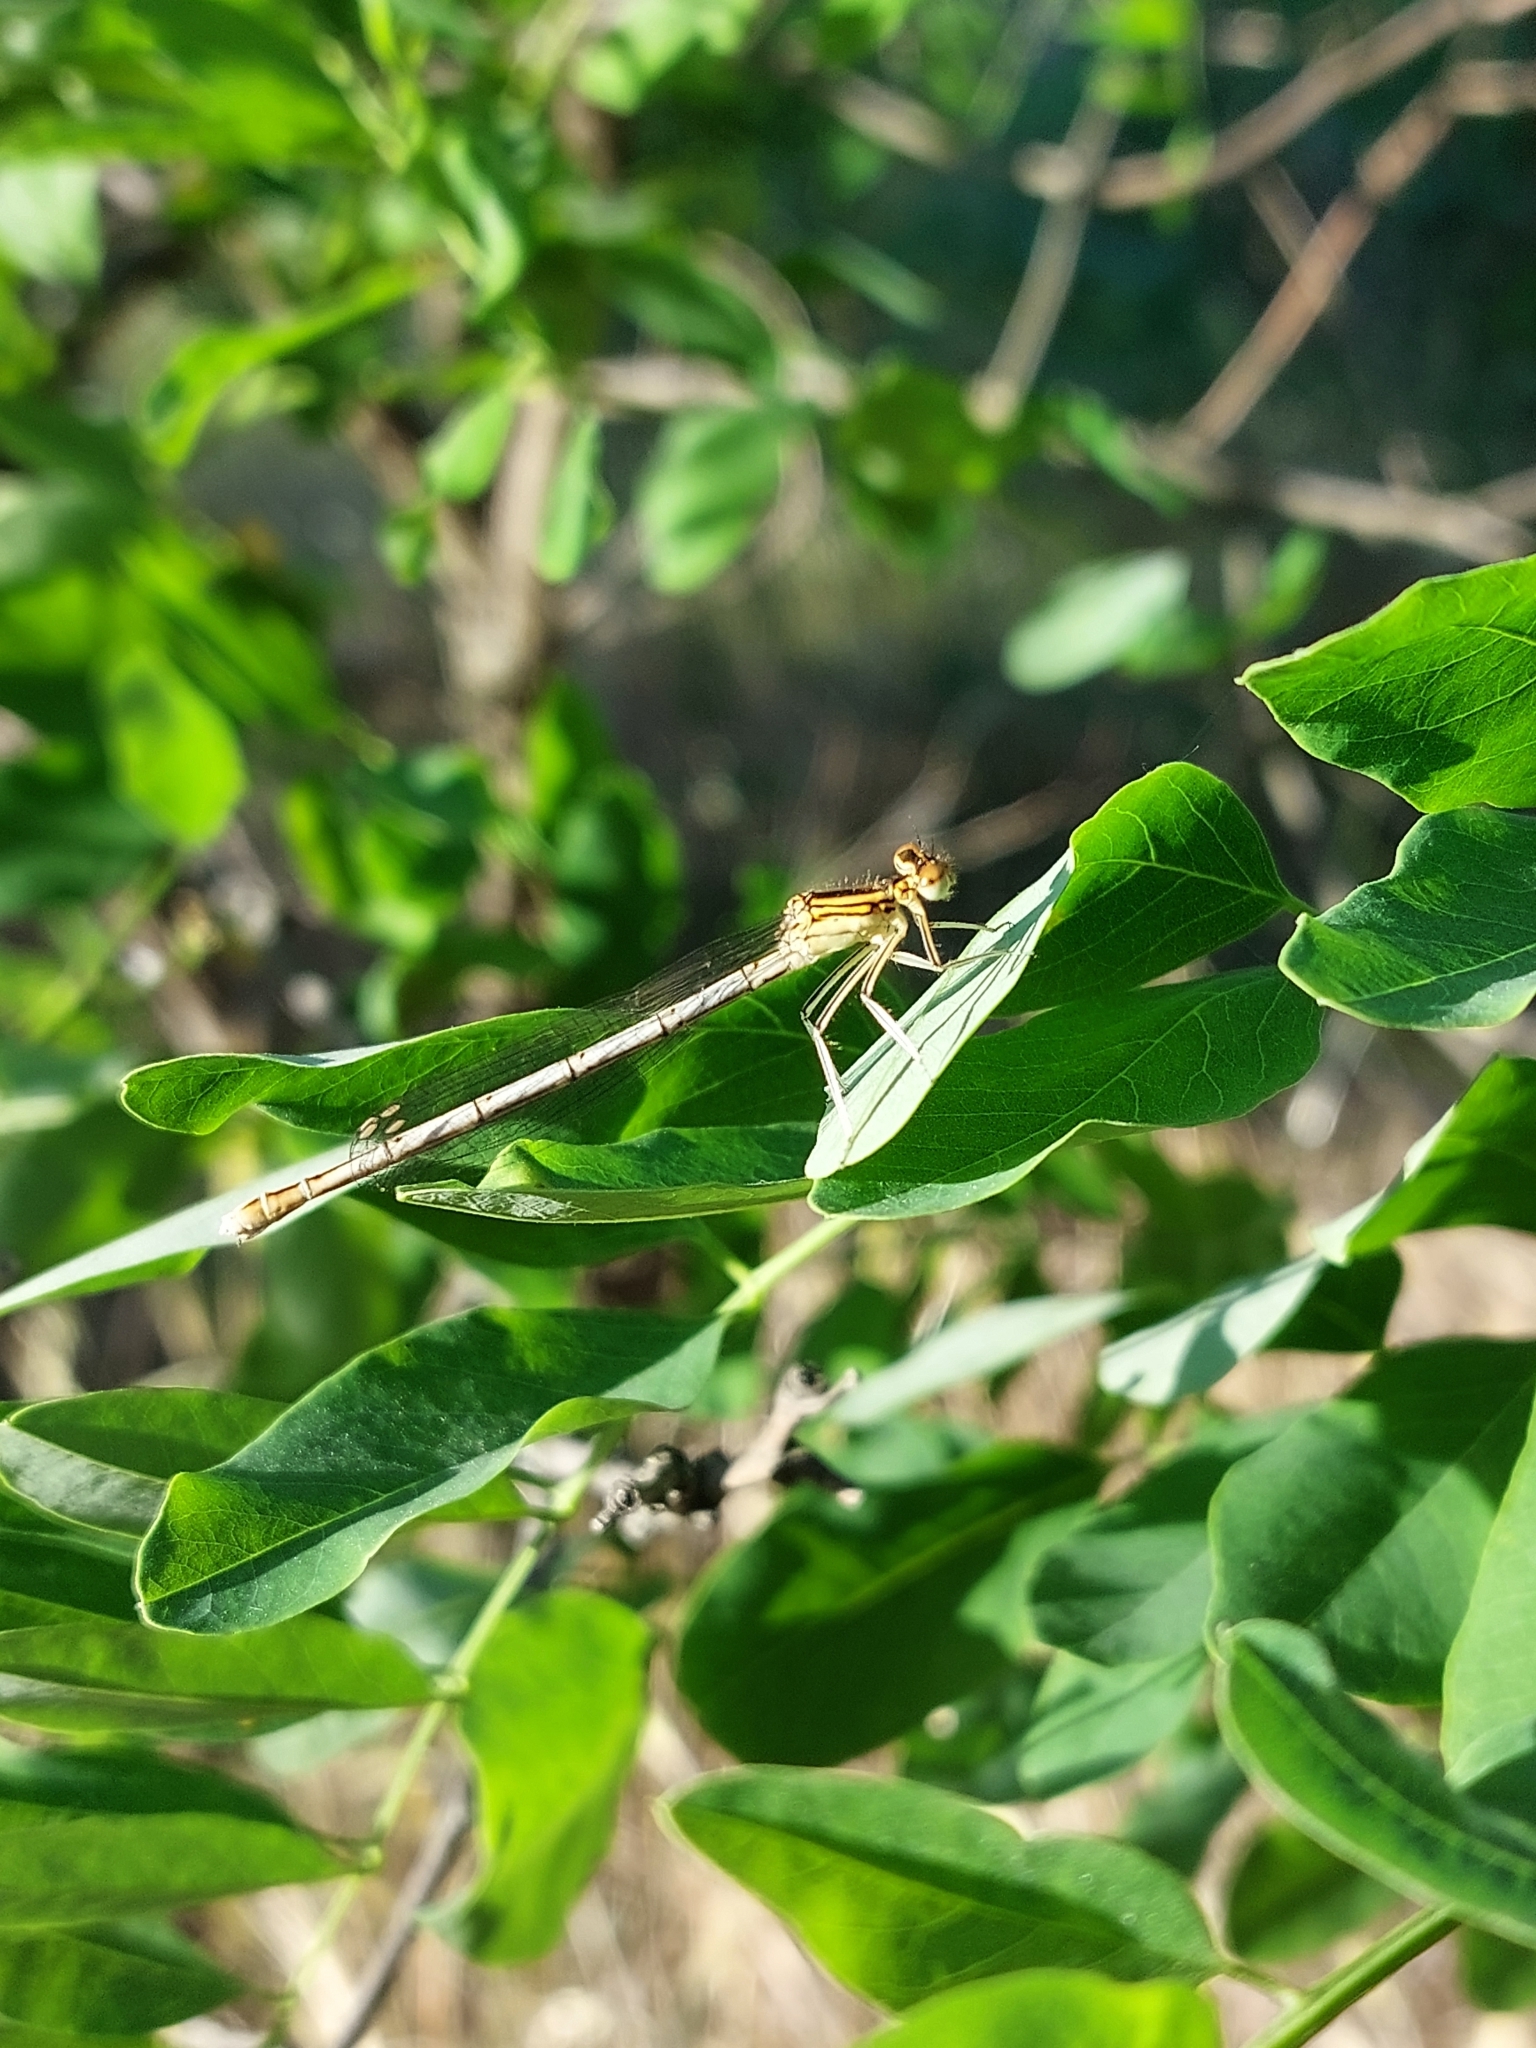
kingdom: Animalia
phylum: Arthropoda
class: Insecta
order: Odonata
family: Platycnemididae
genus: Platycnemis
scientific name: Platycnemis pennipes
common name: White-legged damselfly
